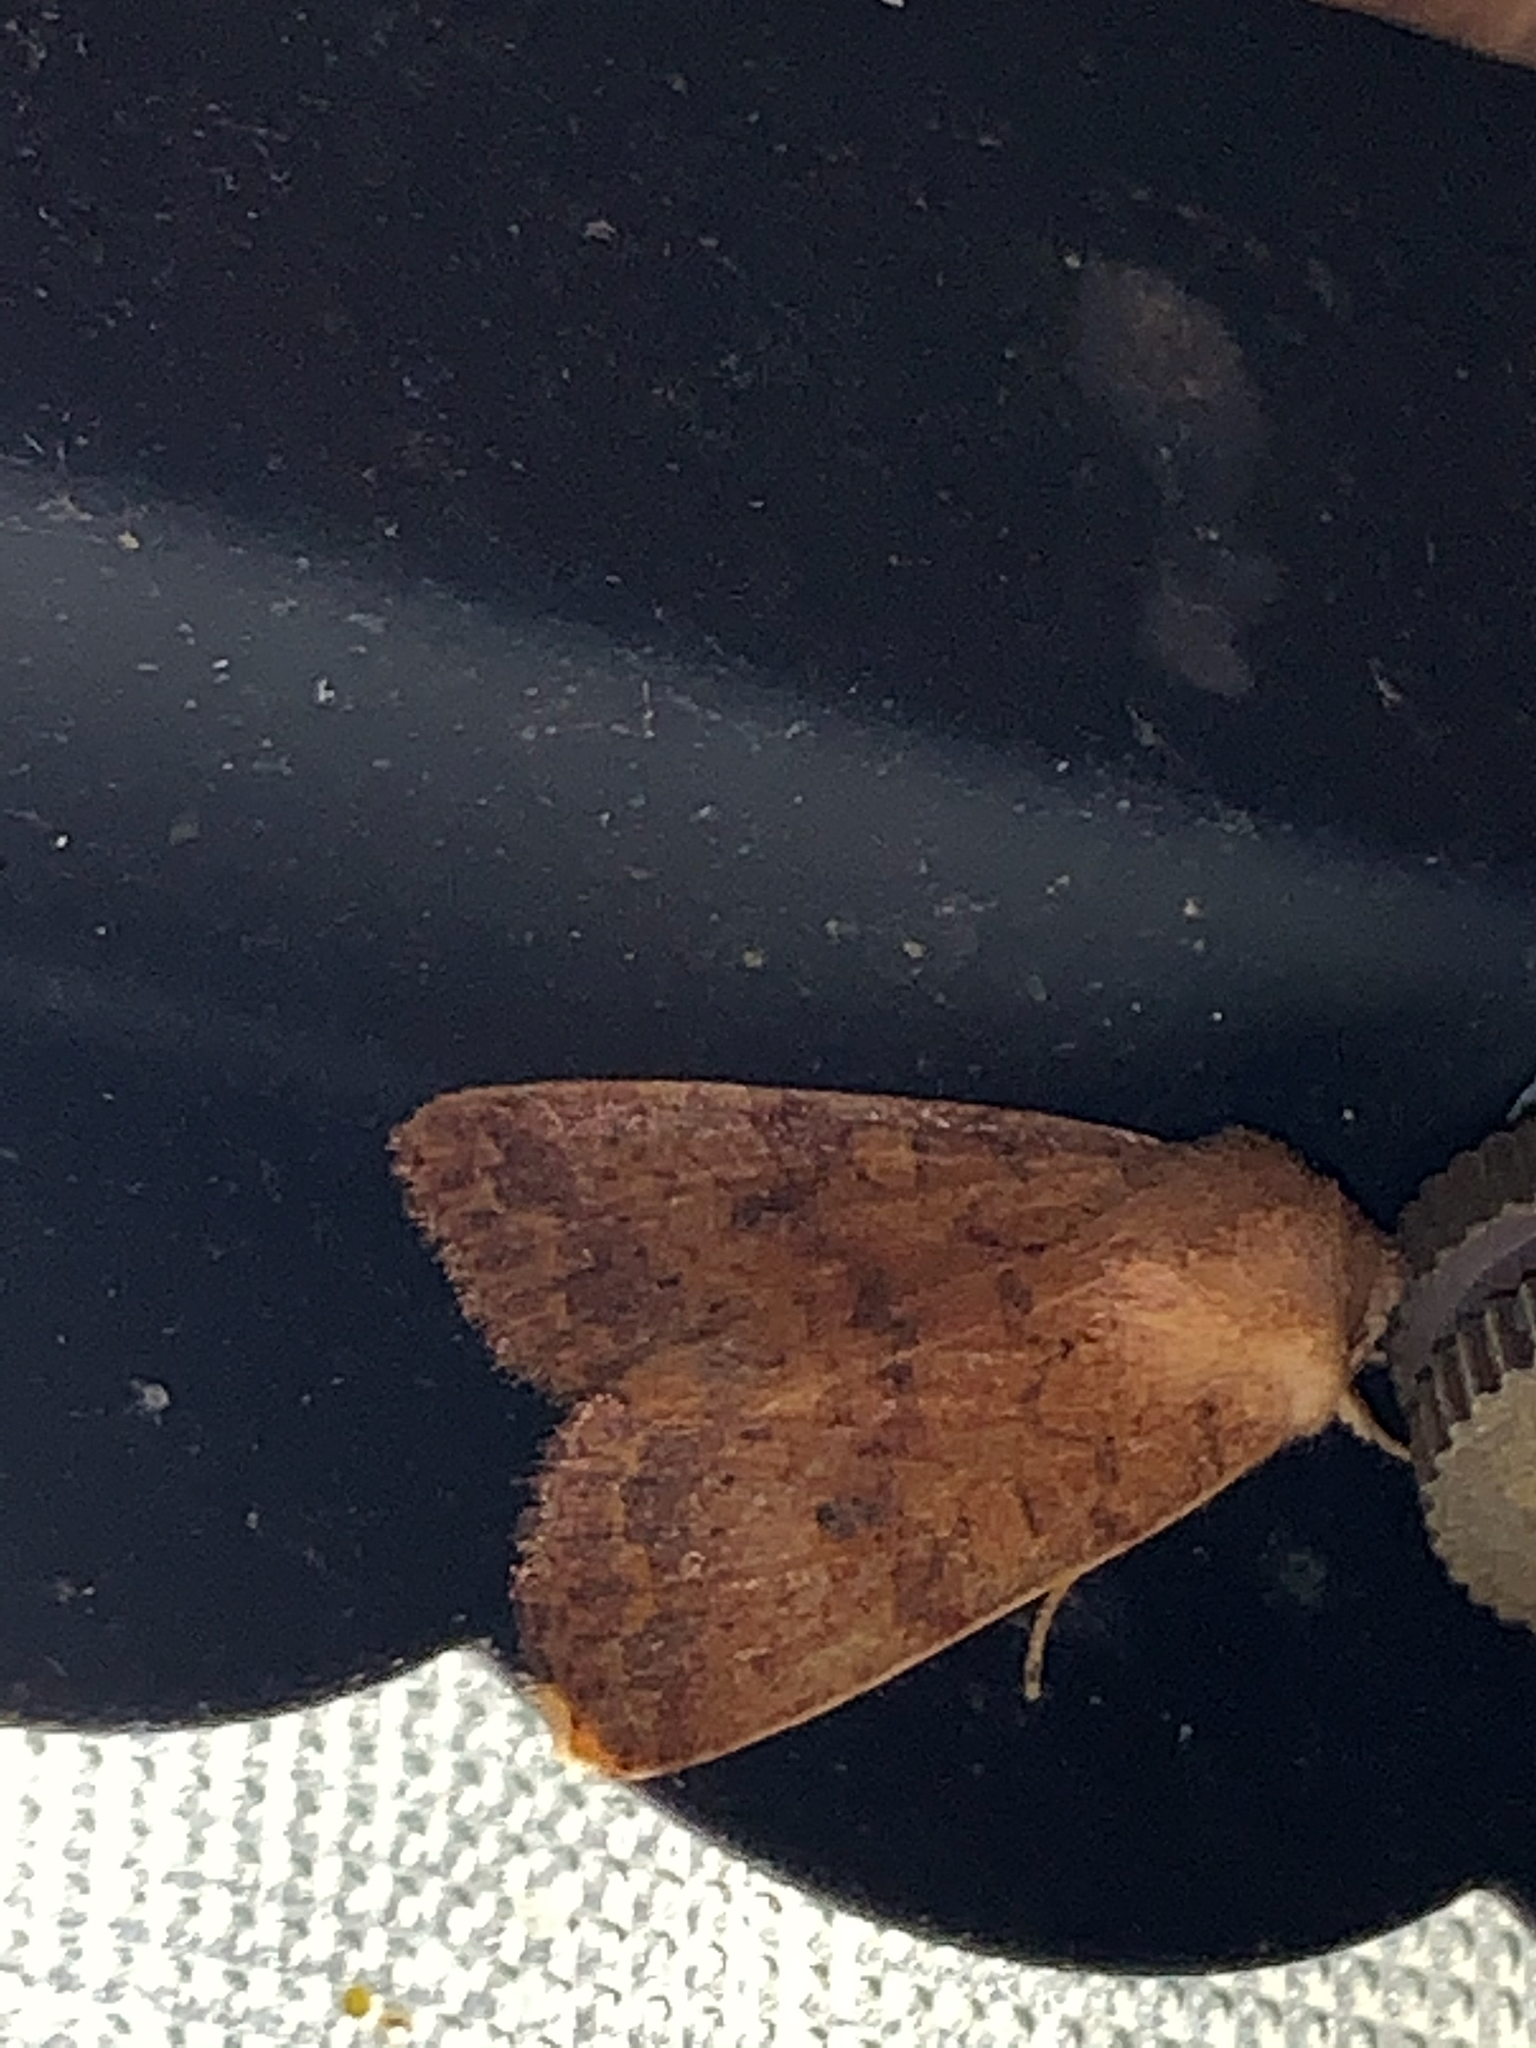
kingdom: Animalia
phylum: Arthropoda
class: Insecta
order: Lepidoptera
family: Noctuidae
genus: Agrochola
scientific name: Agrochola bicolorago
